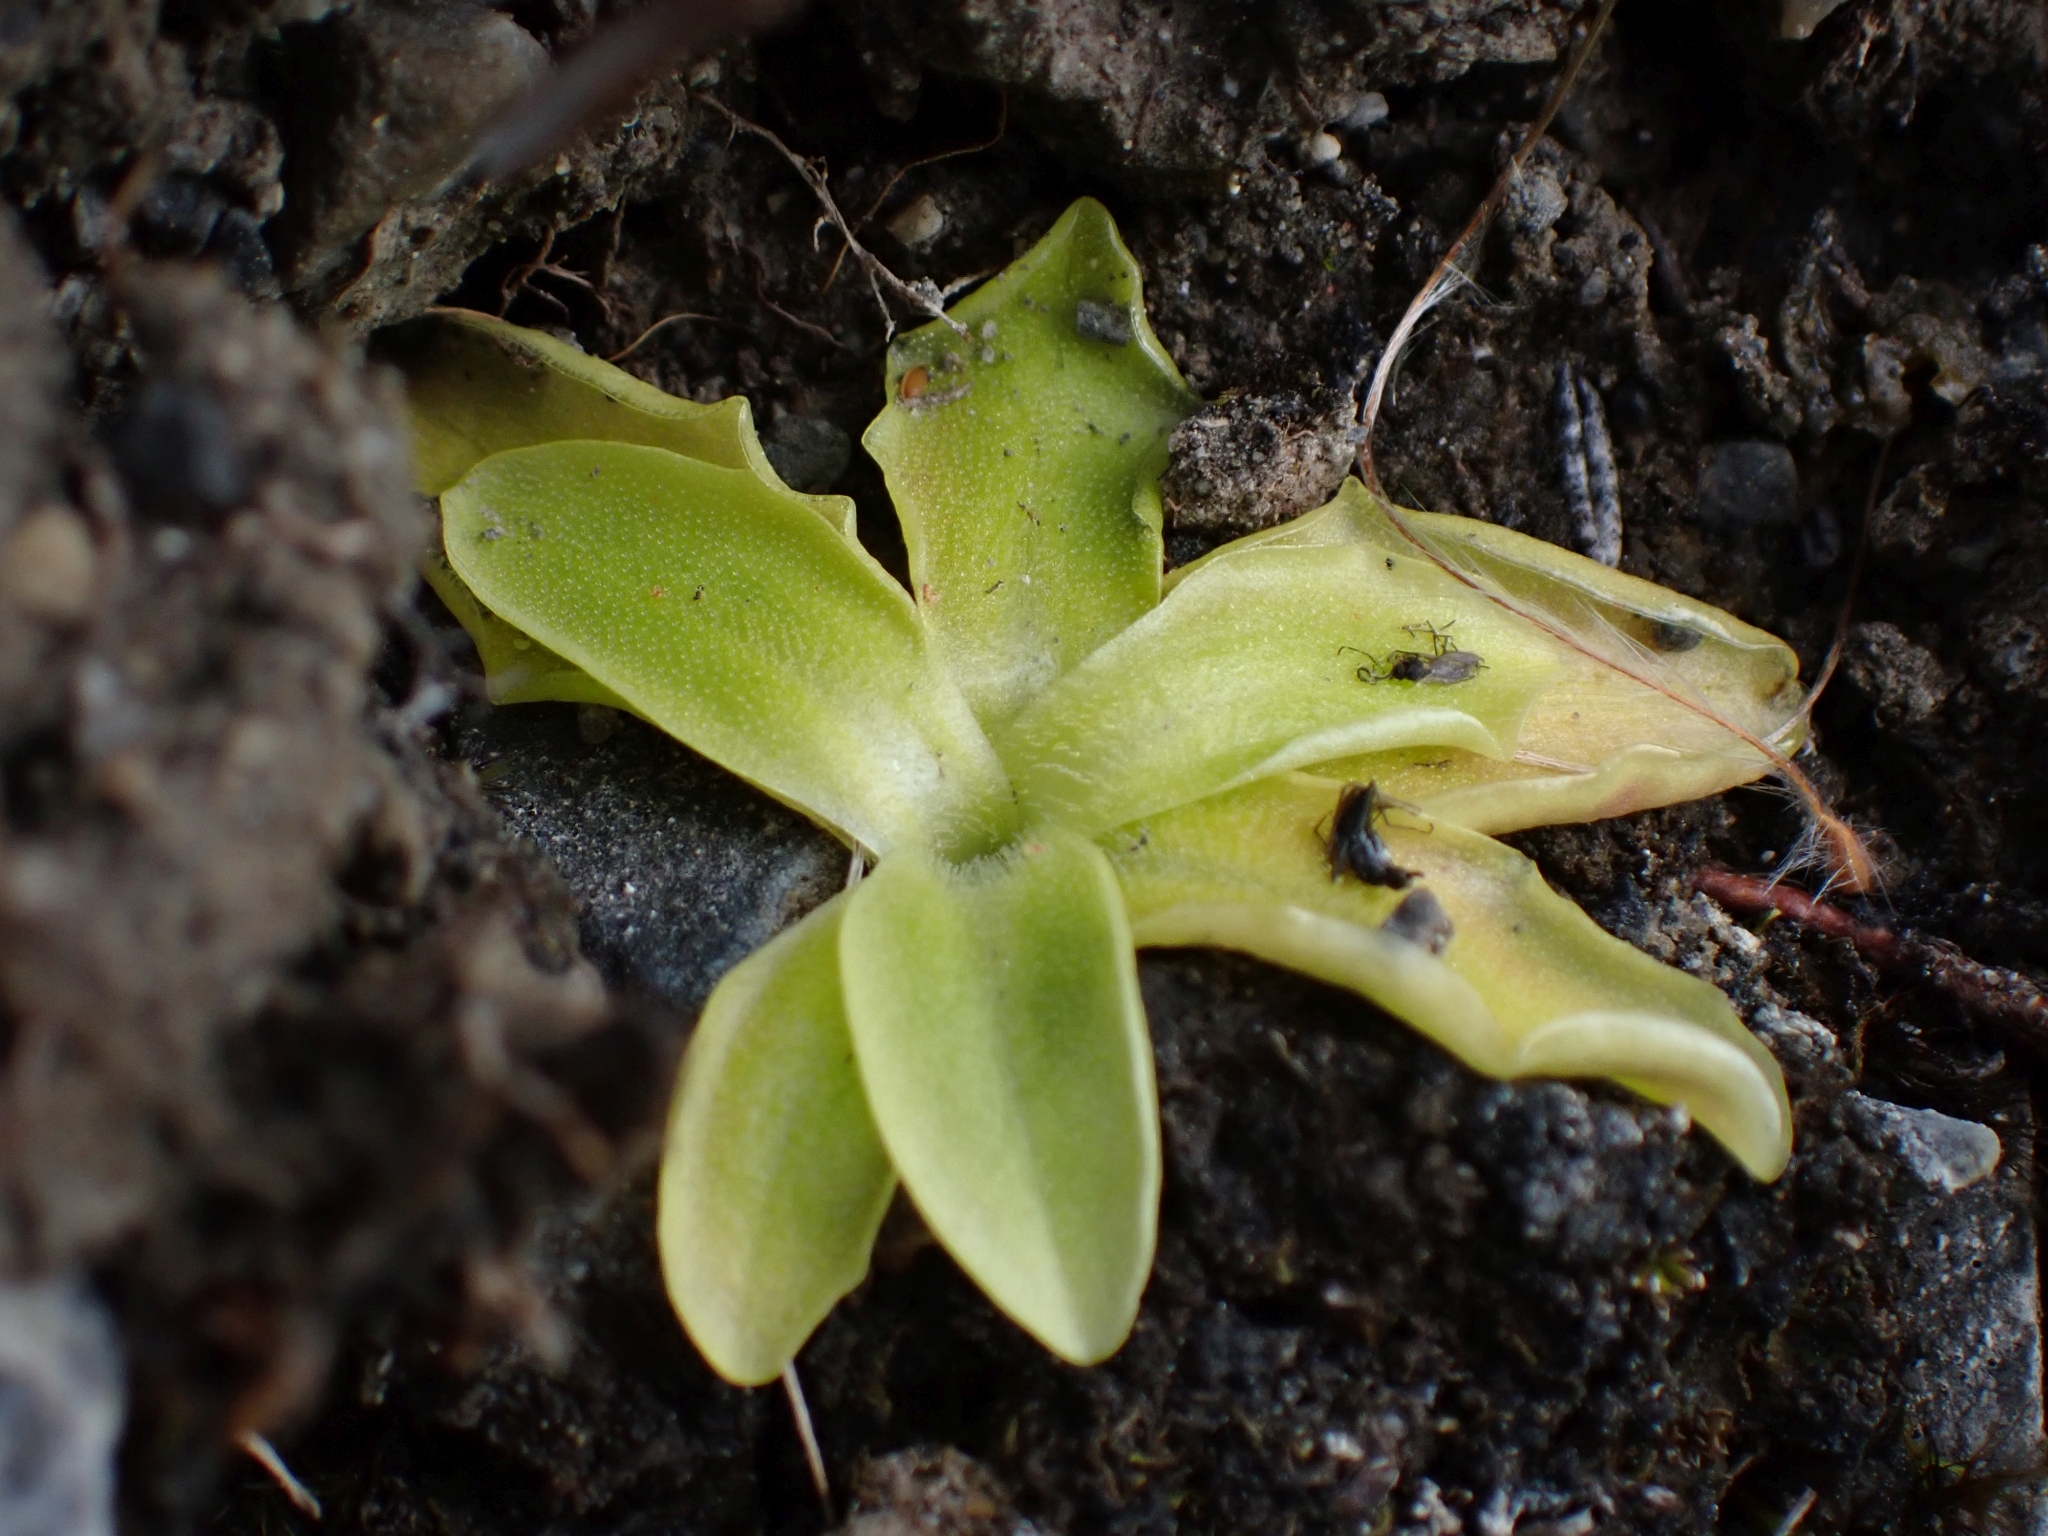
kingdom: Plantae
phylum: Tracheophyta
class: Magnoliopsida
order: Lamiales
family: Lentibulariaceae
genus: Pinguicula
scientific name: Pinguicula vulgaris
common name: Common butterwort
